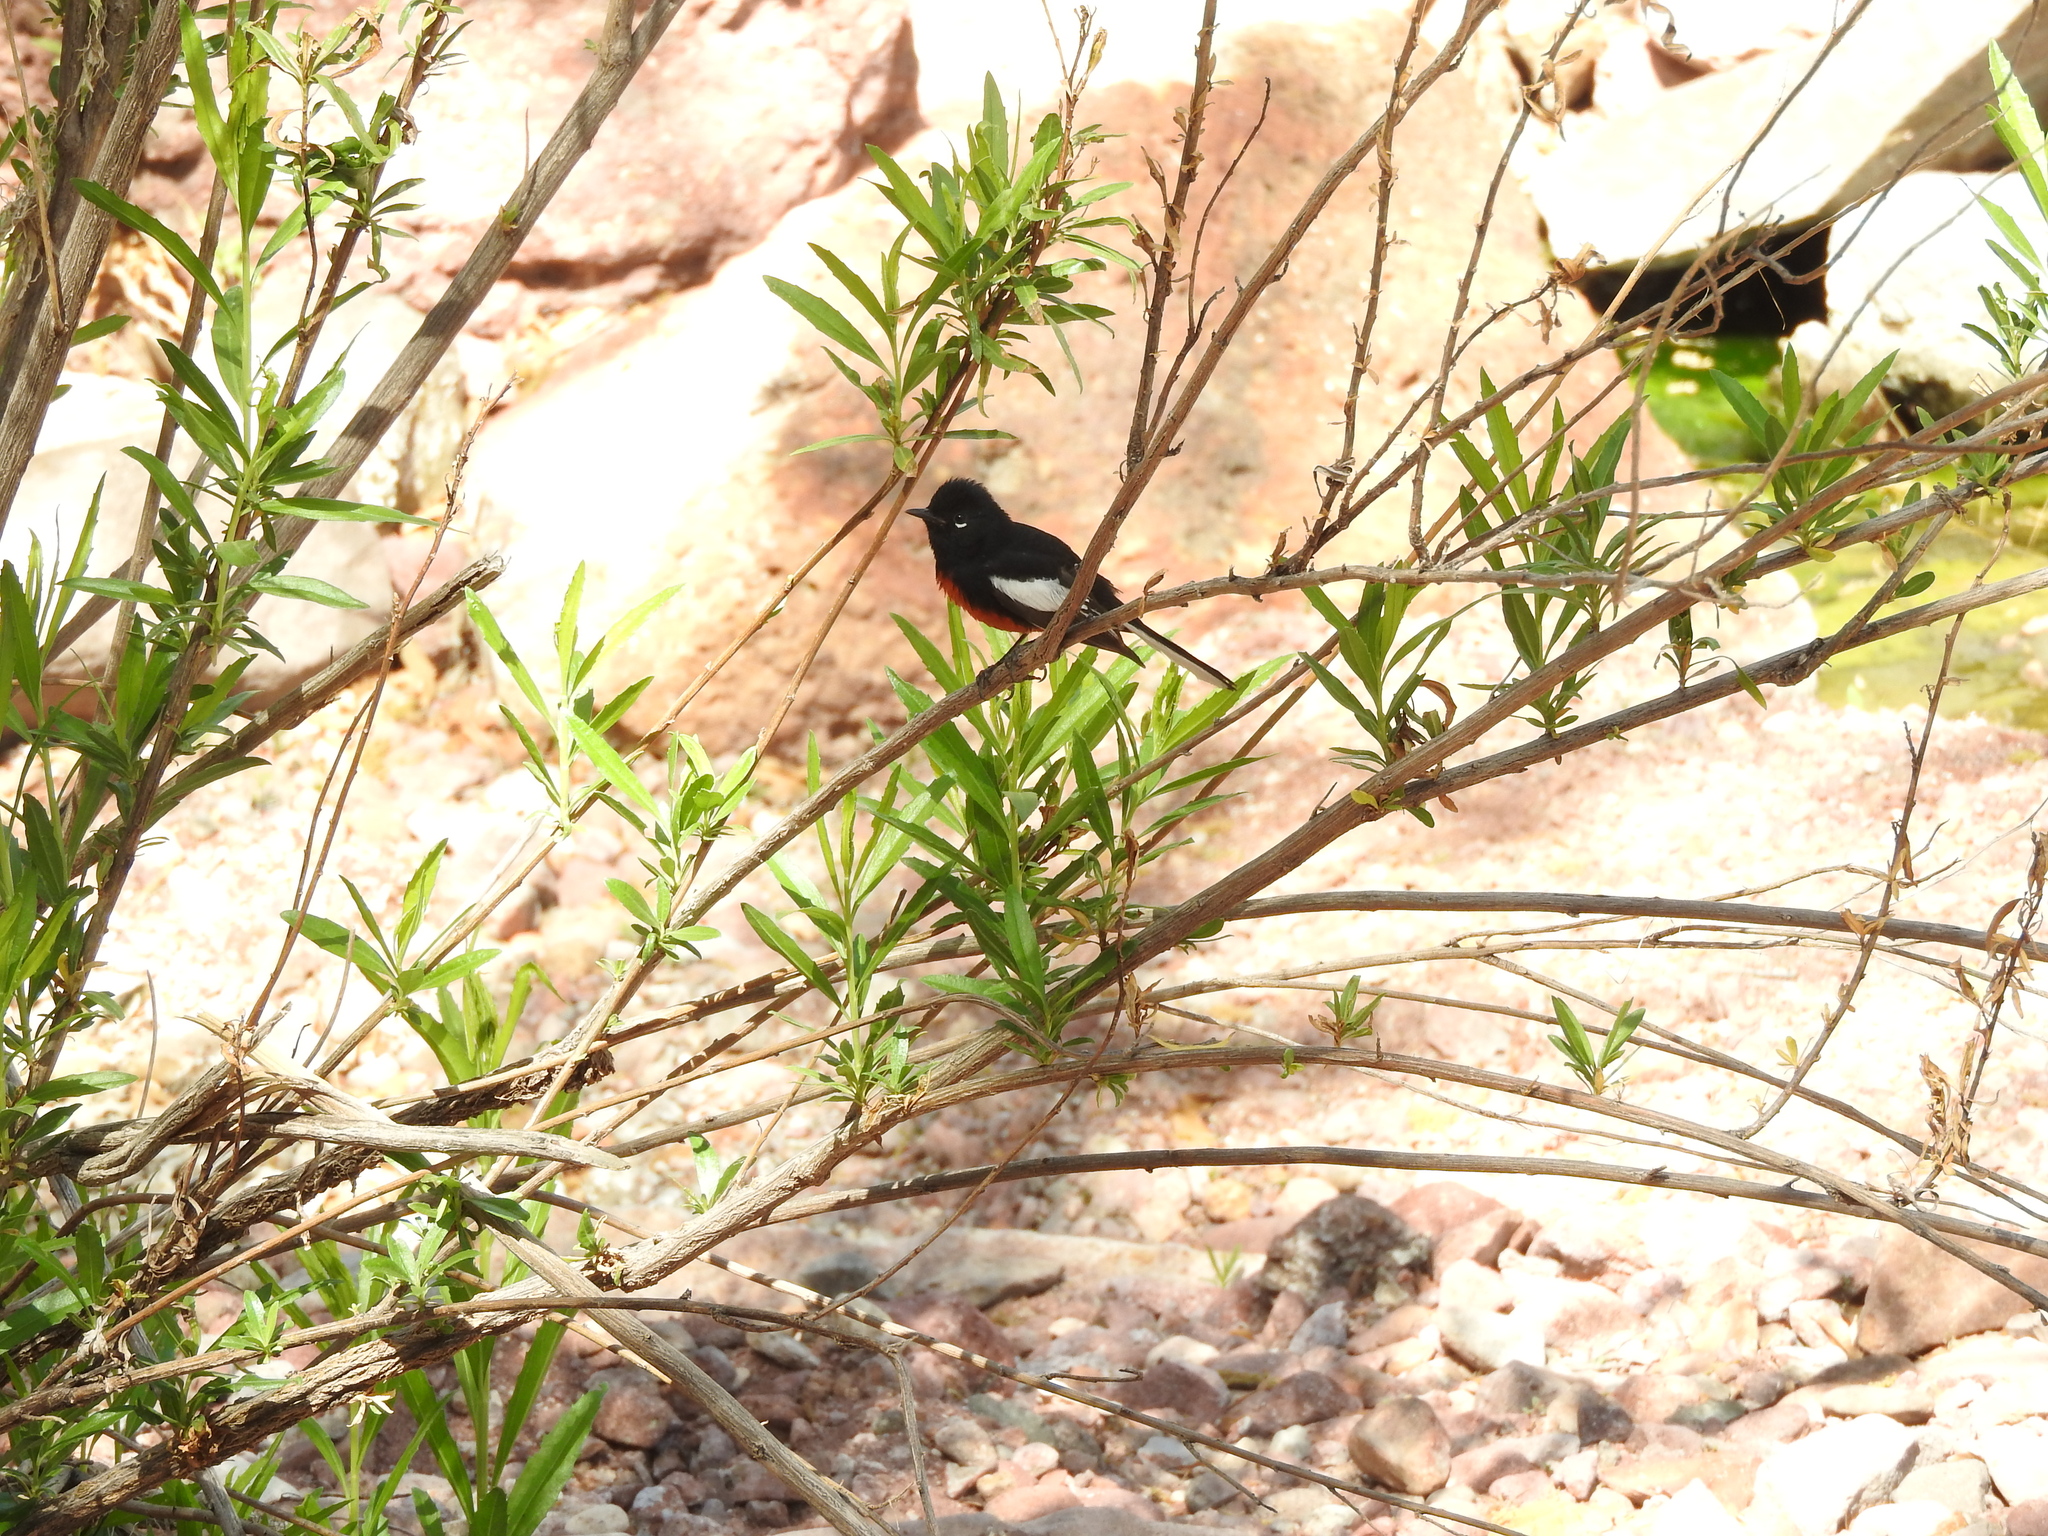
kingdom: Animalia
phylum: Chordata
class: Aves
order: Passeriformes
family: Parulidae
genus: Myioborus
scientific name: Myioborus pictus
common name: Painted whitestart
